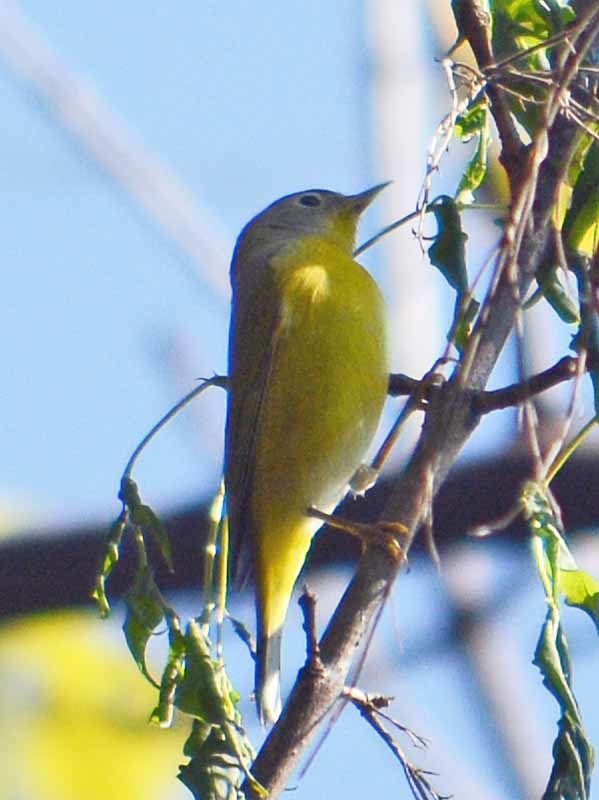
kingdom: Animalia
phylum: Chordata
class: Aves
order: Passeriformes
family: Parulidae
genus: Leiothlypis
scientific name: Leiothlypis ruficapilla
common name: Nashville warbler
